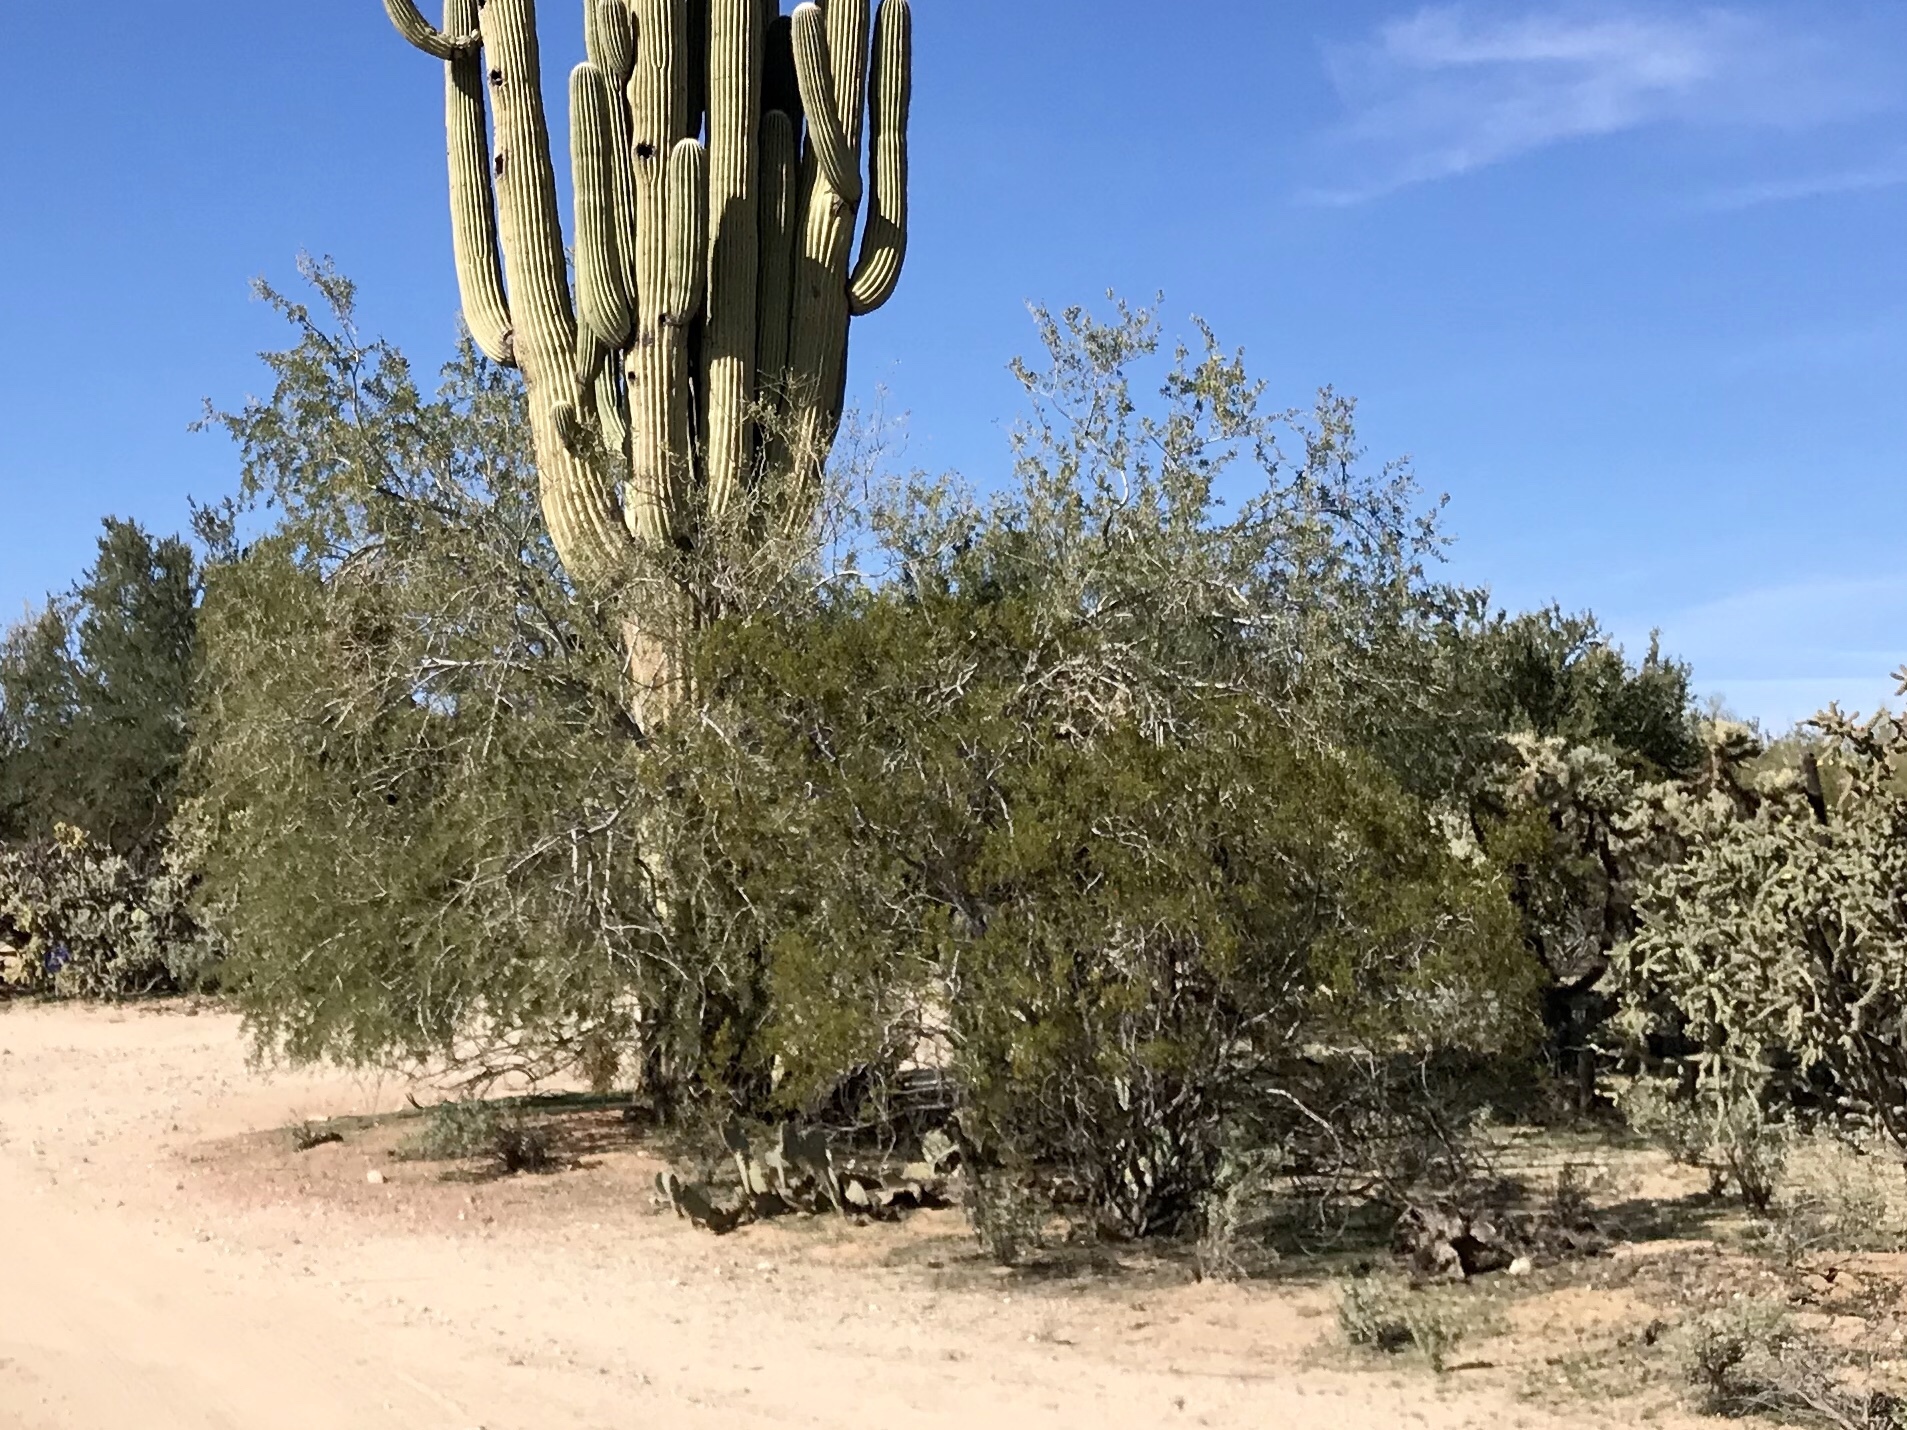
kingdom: Plantae
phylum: Tracheophyta
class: Magnoliopsida
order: Zygophyllales
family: Zygophyllaceae
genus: Larrea
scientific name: Larrea tridentata
